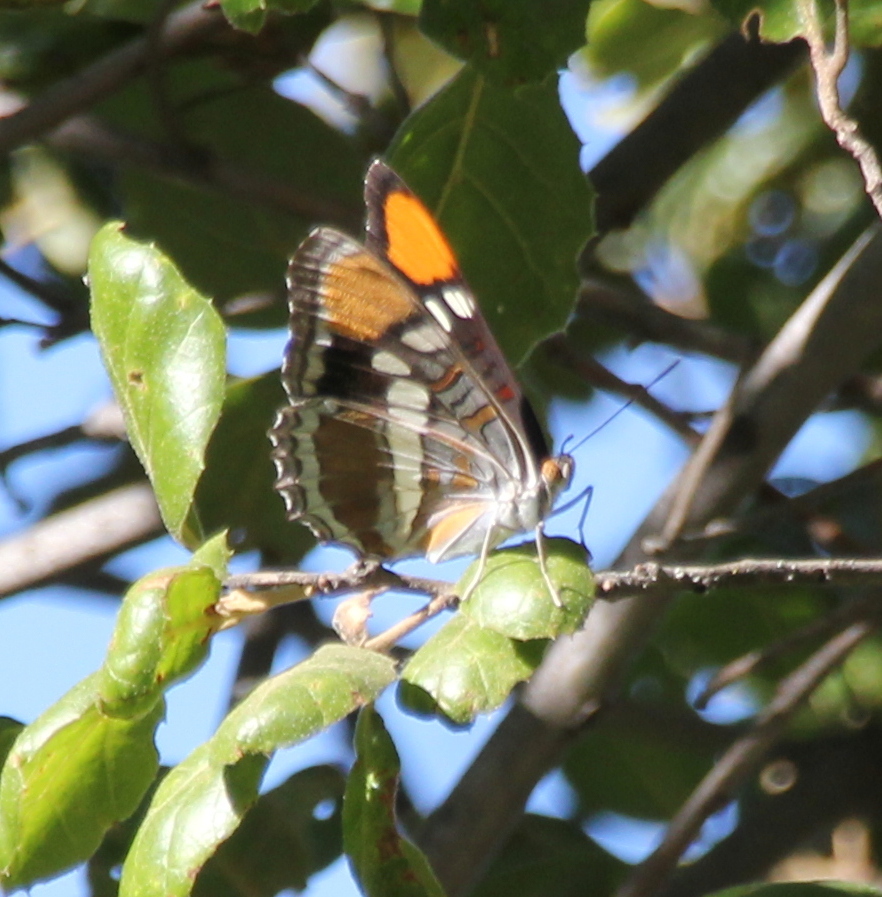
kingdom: Animalia
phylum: Arthropoda
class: Insecta
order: Lepidoptera
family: Nymphalidae
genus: Limenitis
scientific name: Limenitis bredowii
